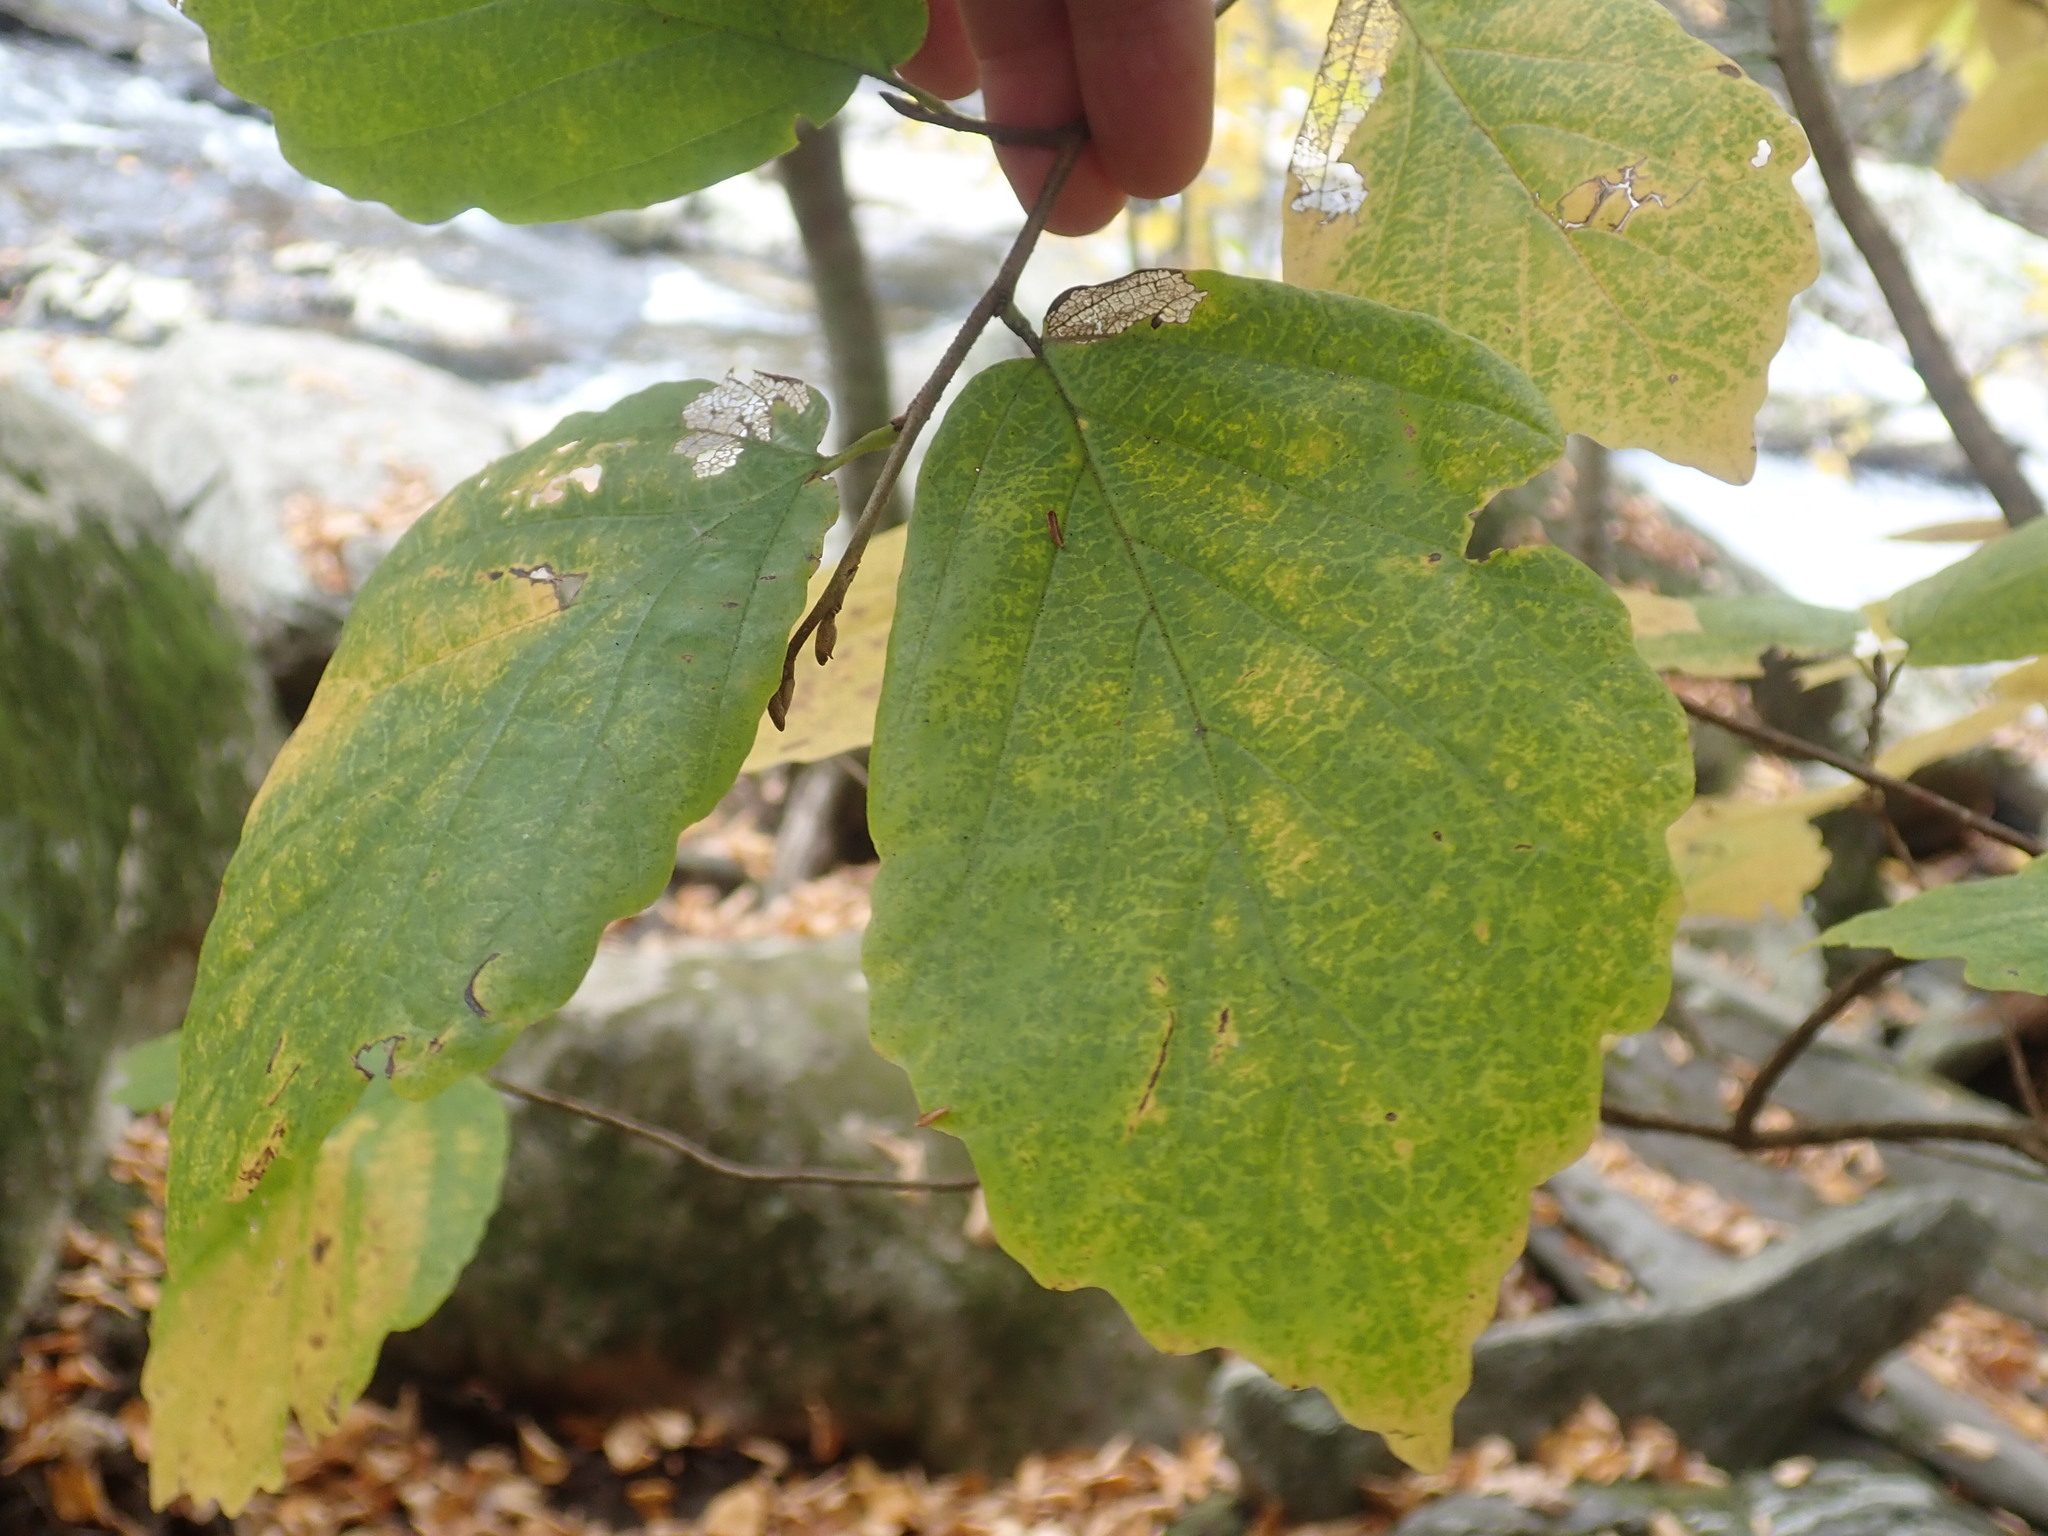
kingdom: Plantae
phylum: Tracheophyta
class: Magnoliopsida
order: Saxifragales
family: Hamamelidaceae
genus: Hamamelis
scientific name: Hamamelis virginiana
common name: Witch-hazel
